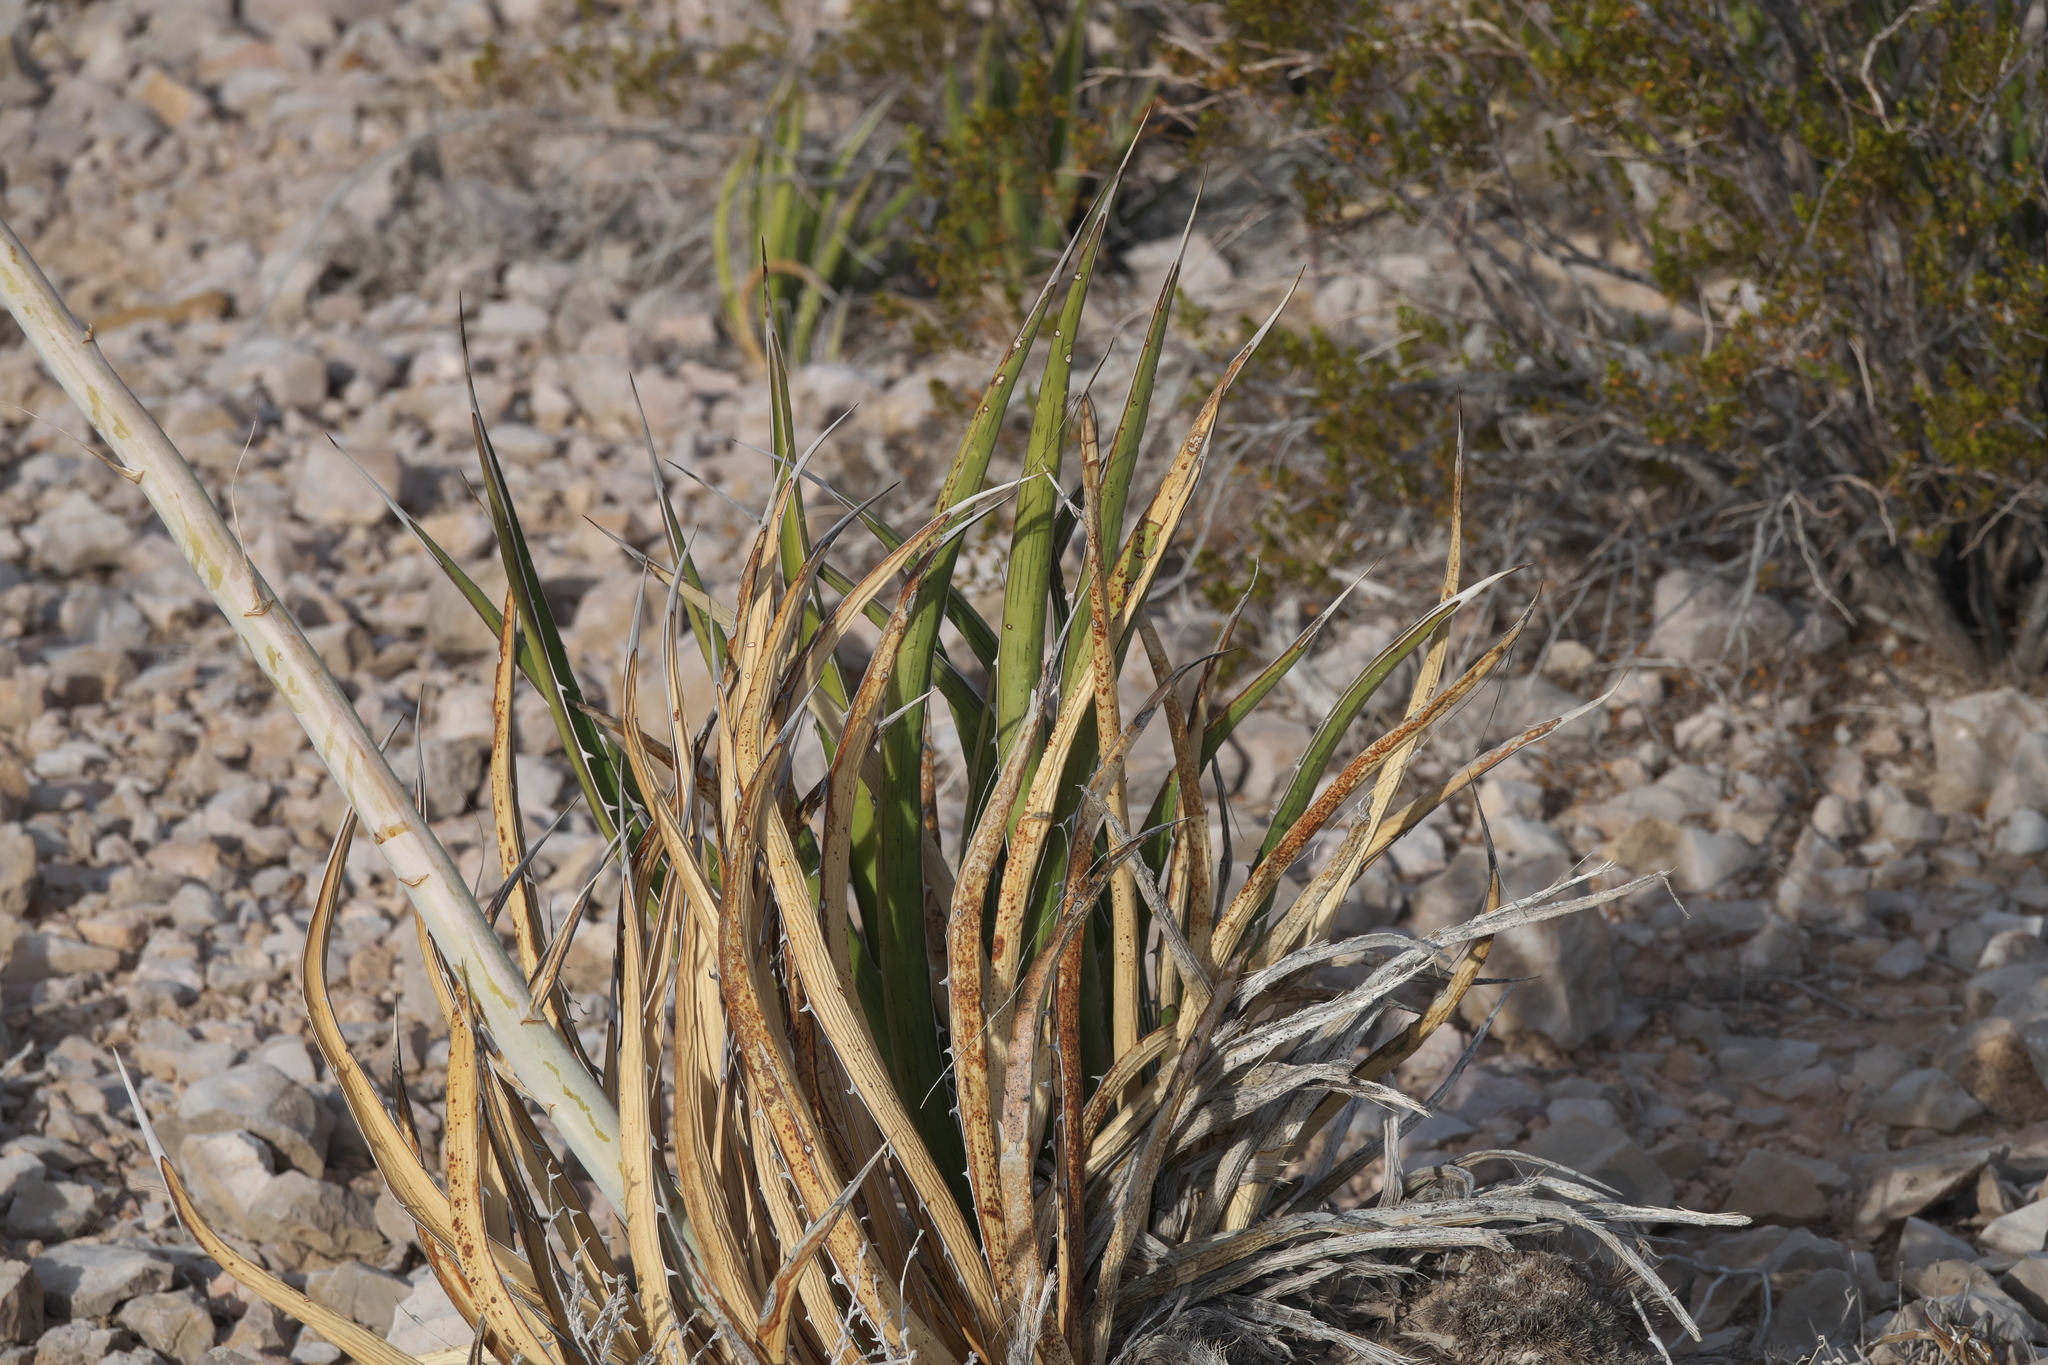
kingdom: Plantae
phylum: Tracheophyta
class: Liliopsida
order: Asparagales
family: Asparagaceae
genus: Agave
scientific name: Agave lechuguilla
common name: Lecheguilla agave
